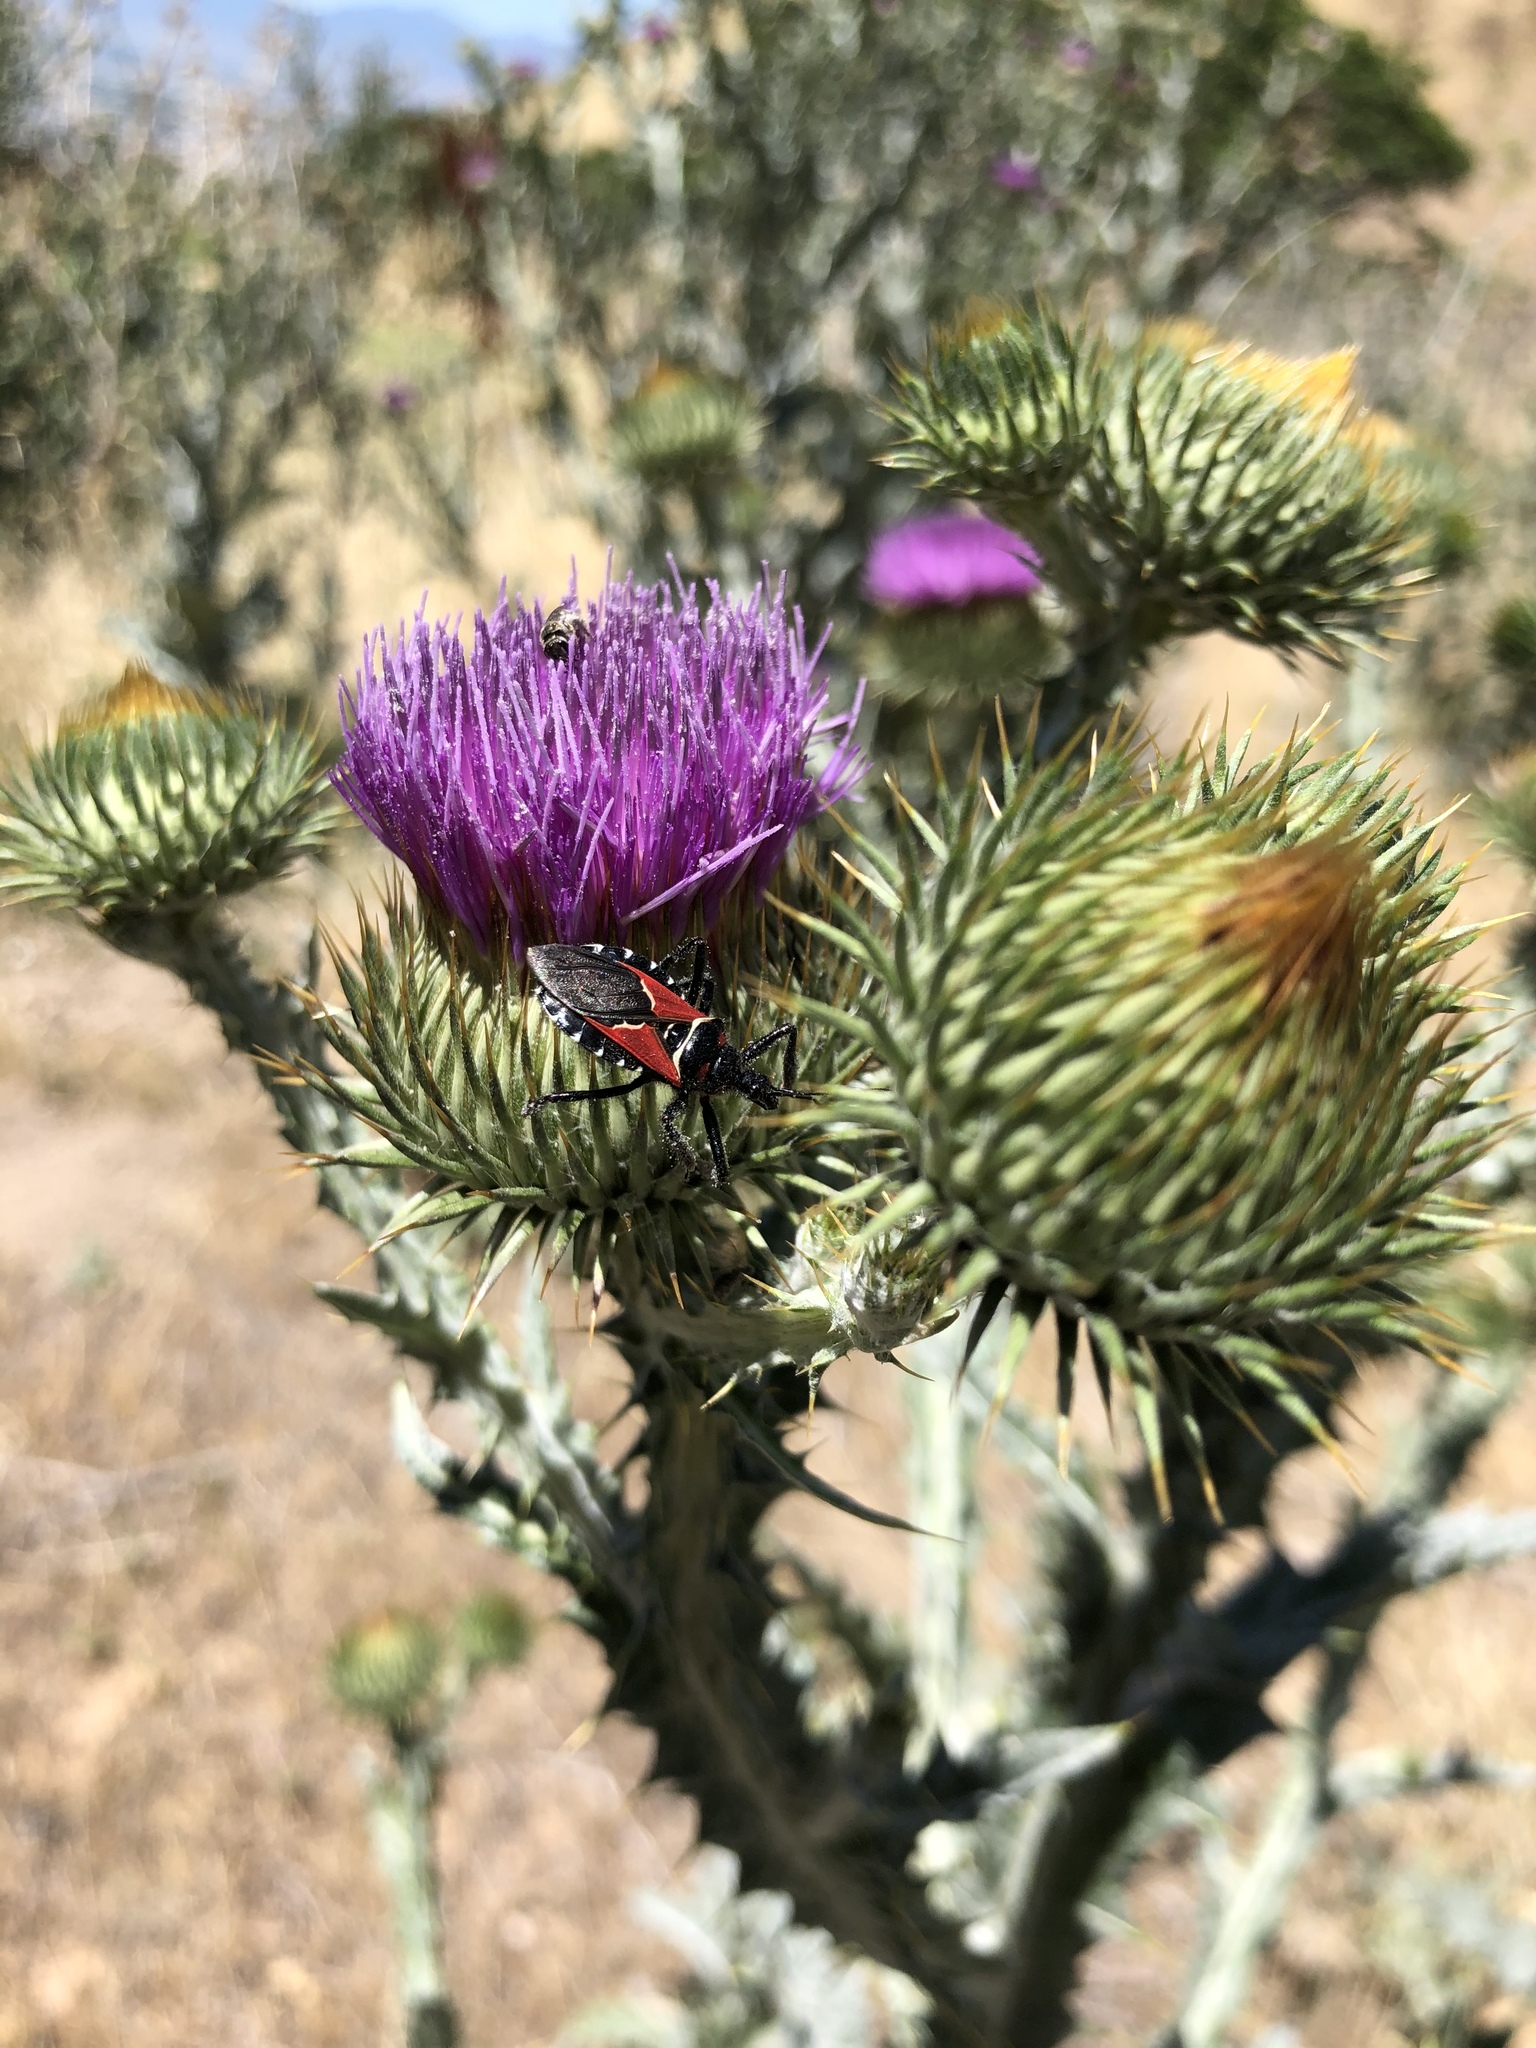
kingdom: Animalia
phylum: Arthropoda
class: Insecta
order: Hemiptera
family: Reduviidae
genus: Apiomerus
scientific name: Apiomerus montanus
